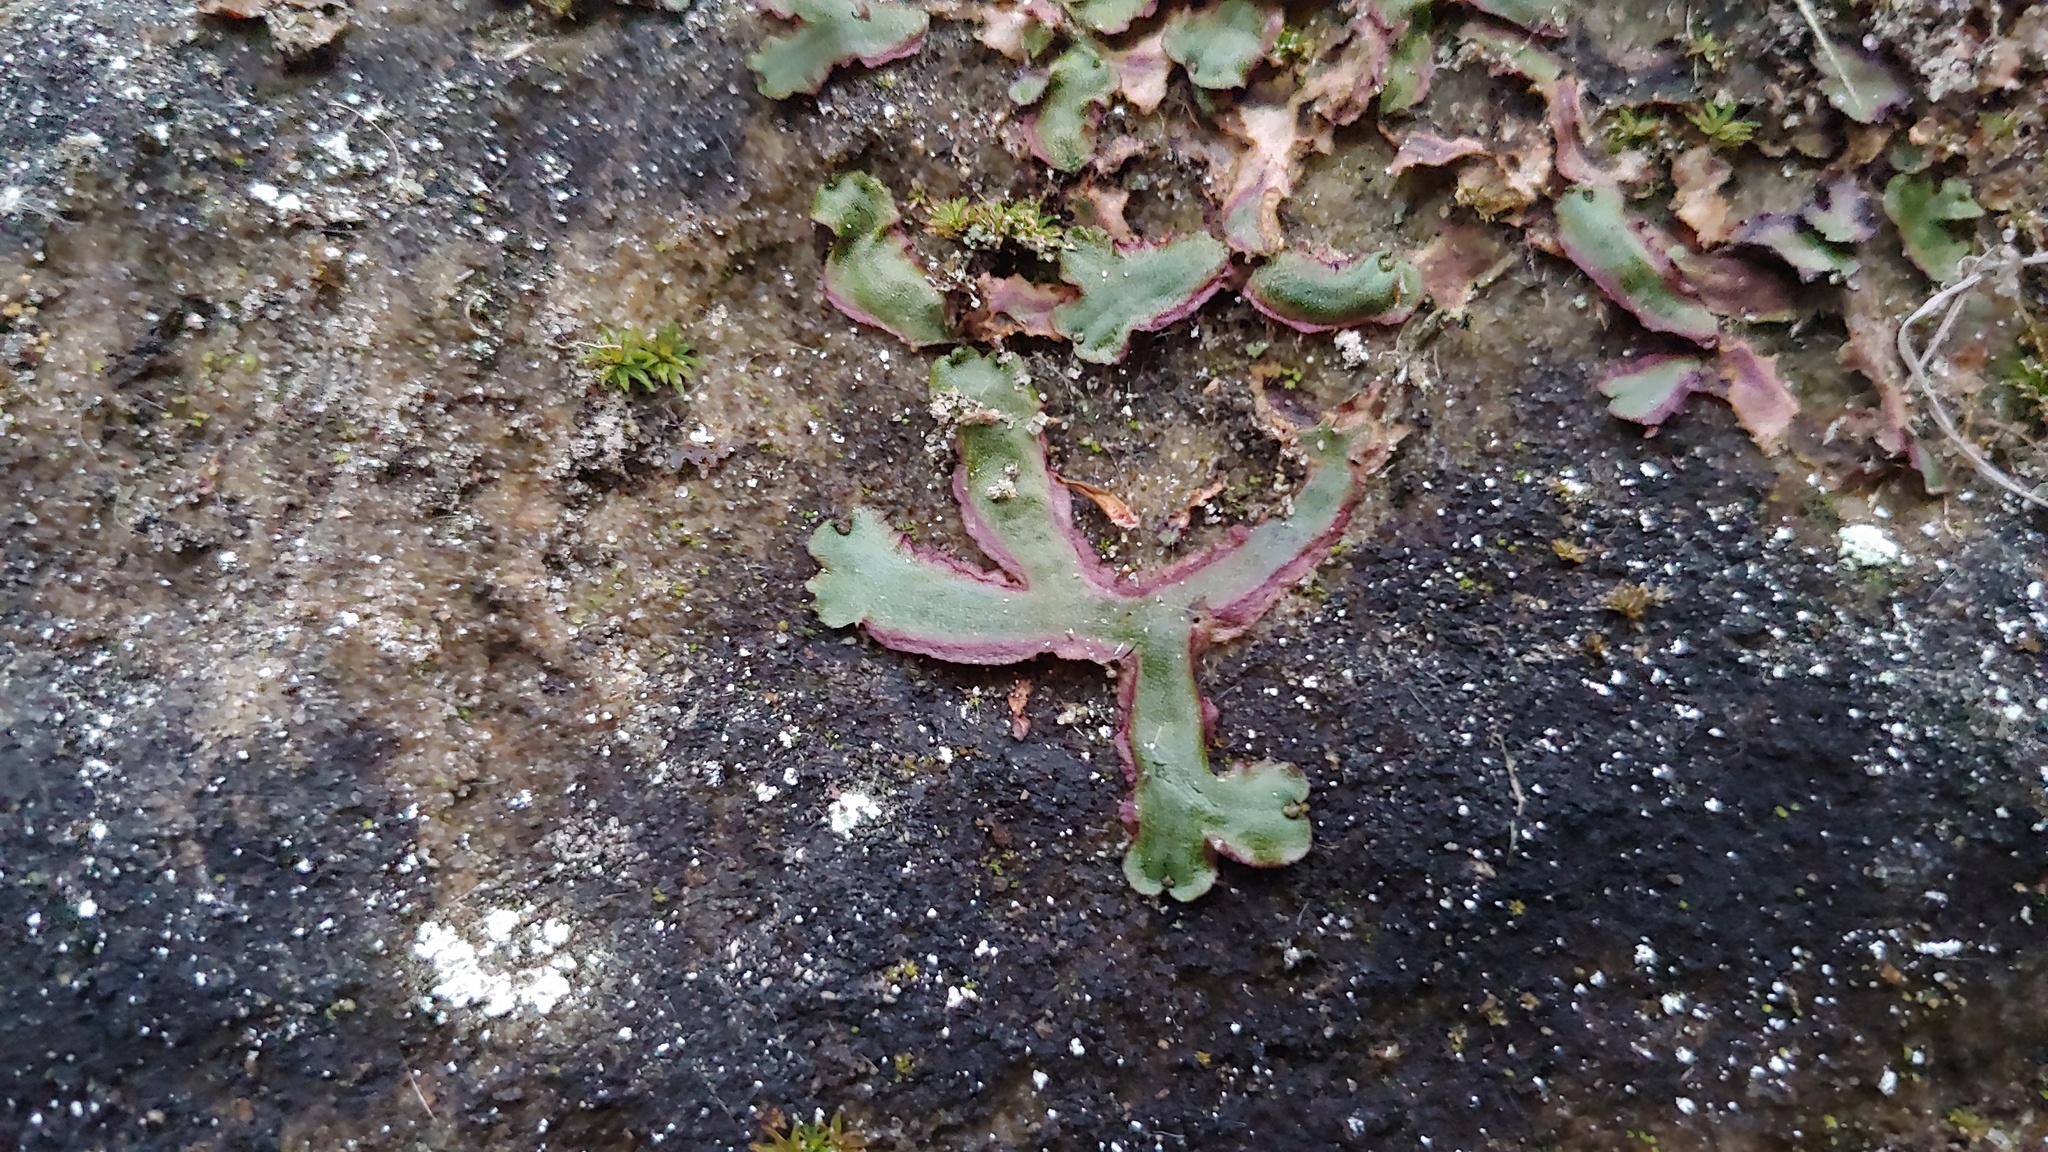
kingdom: Plantae
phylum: Marchantiophyta
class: Marchantiopsida
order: Marchantiales
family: Marchantiaceae
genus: Marchantia
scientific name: Marchantia quadrata
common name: Narrow mushroom-headed liverwort
